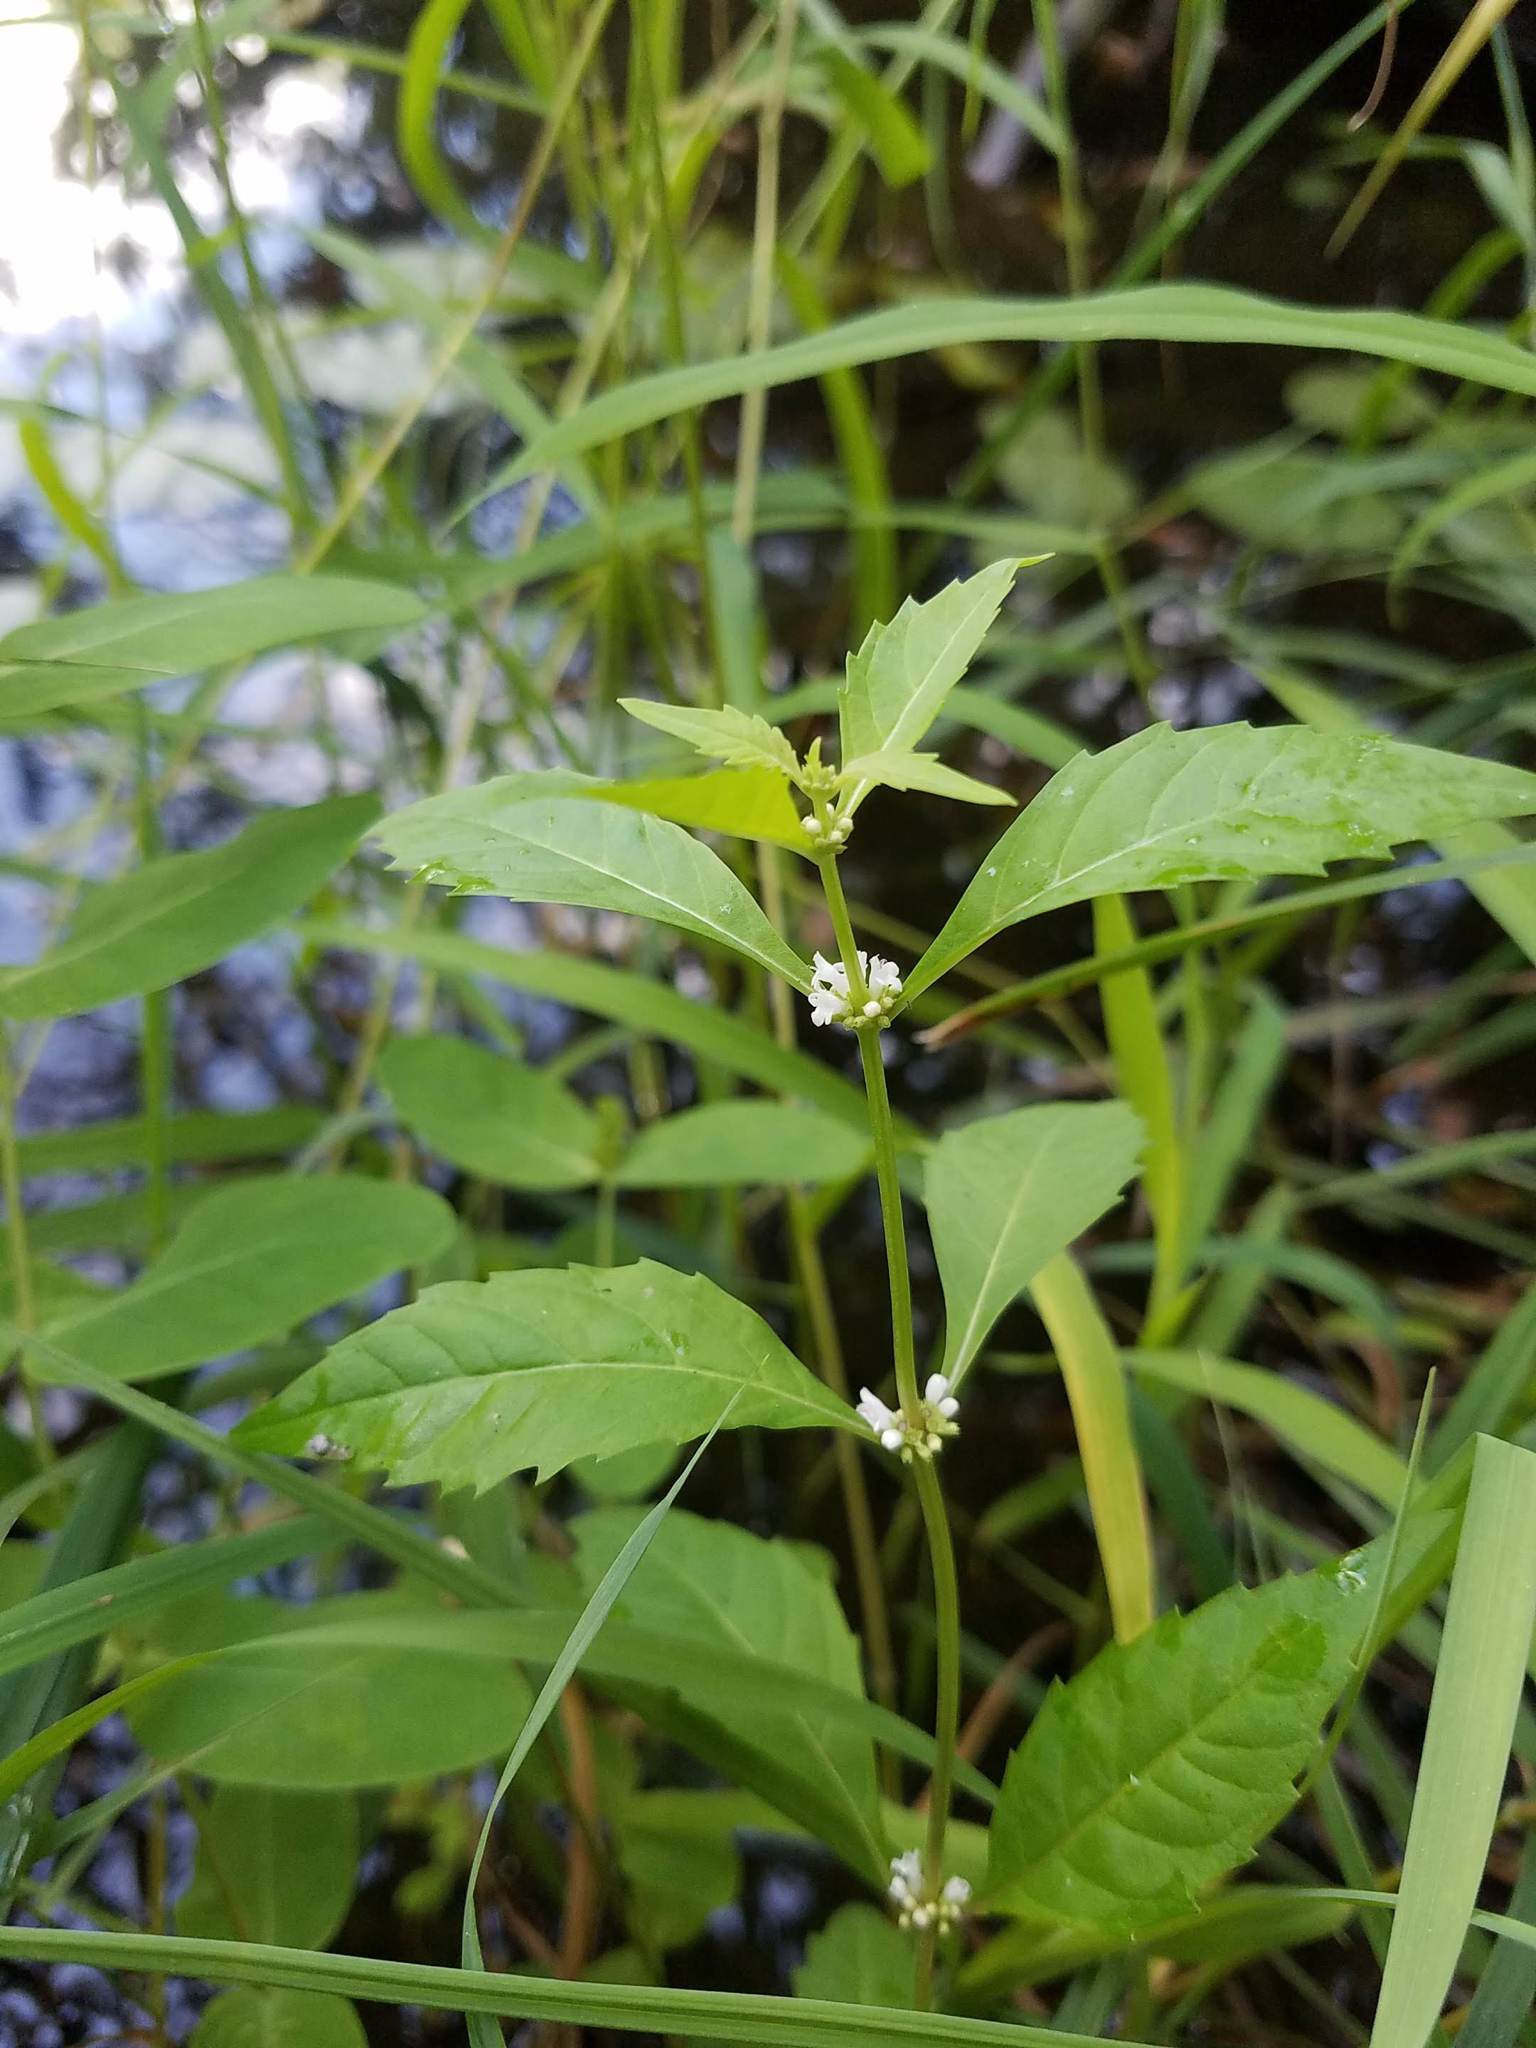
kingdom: Plantae
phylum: Tracheophyta
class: Magnoliopsida
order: Lamiales
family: Lamiaceae
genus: Lycopus
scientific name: Lycopus uniflorus
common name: Northern bugleweed
